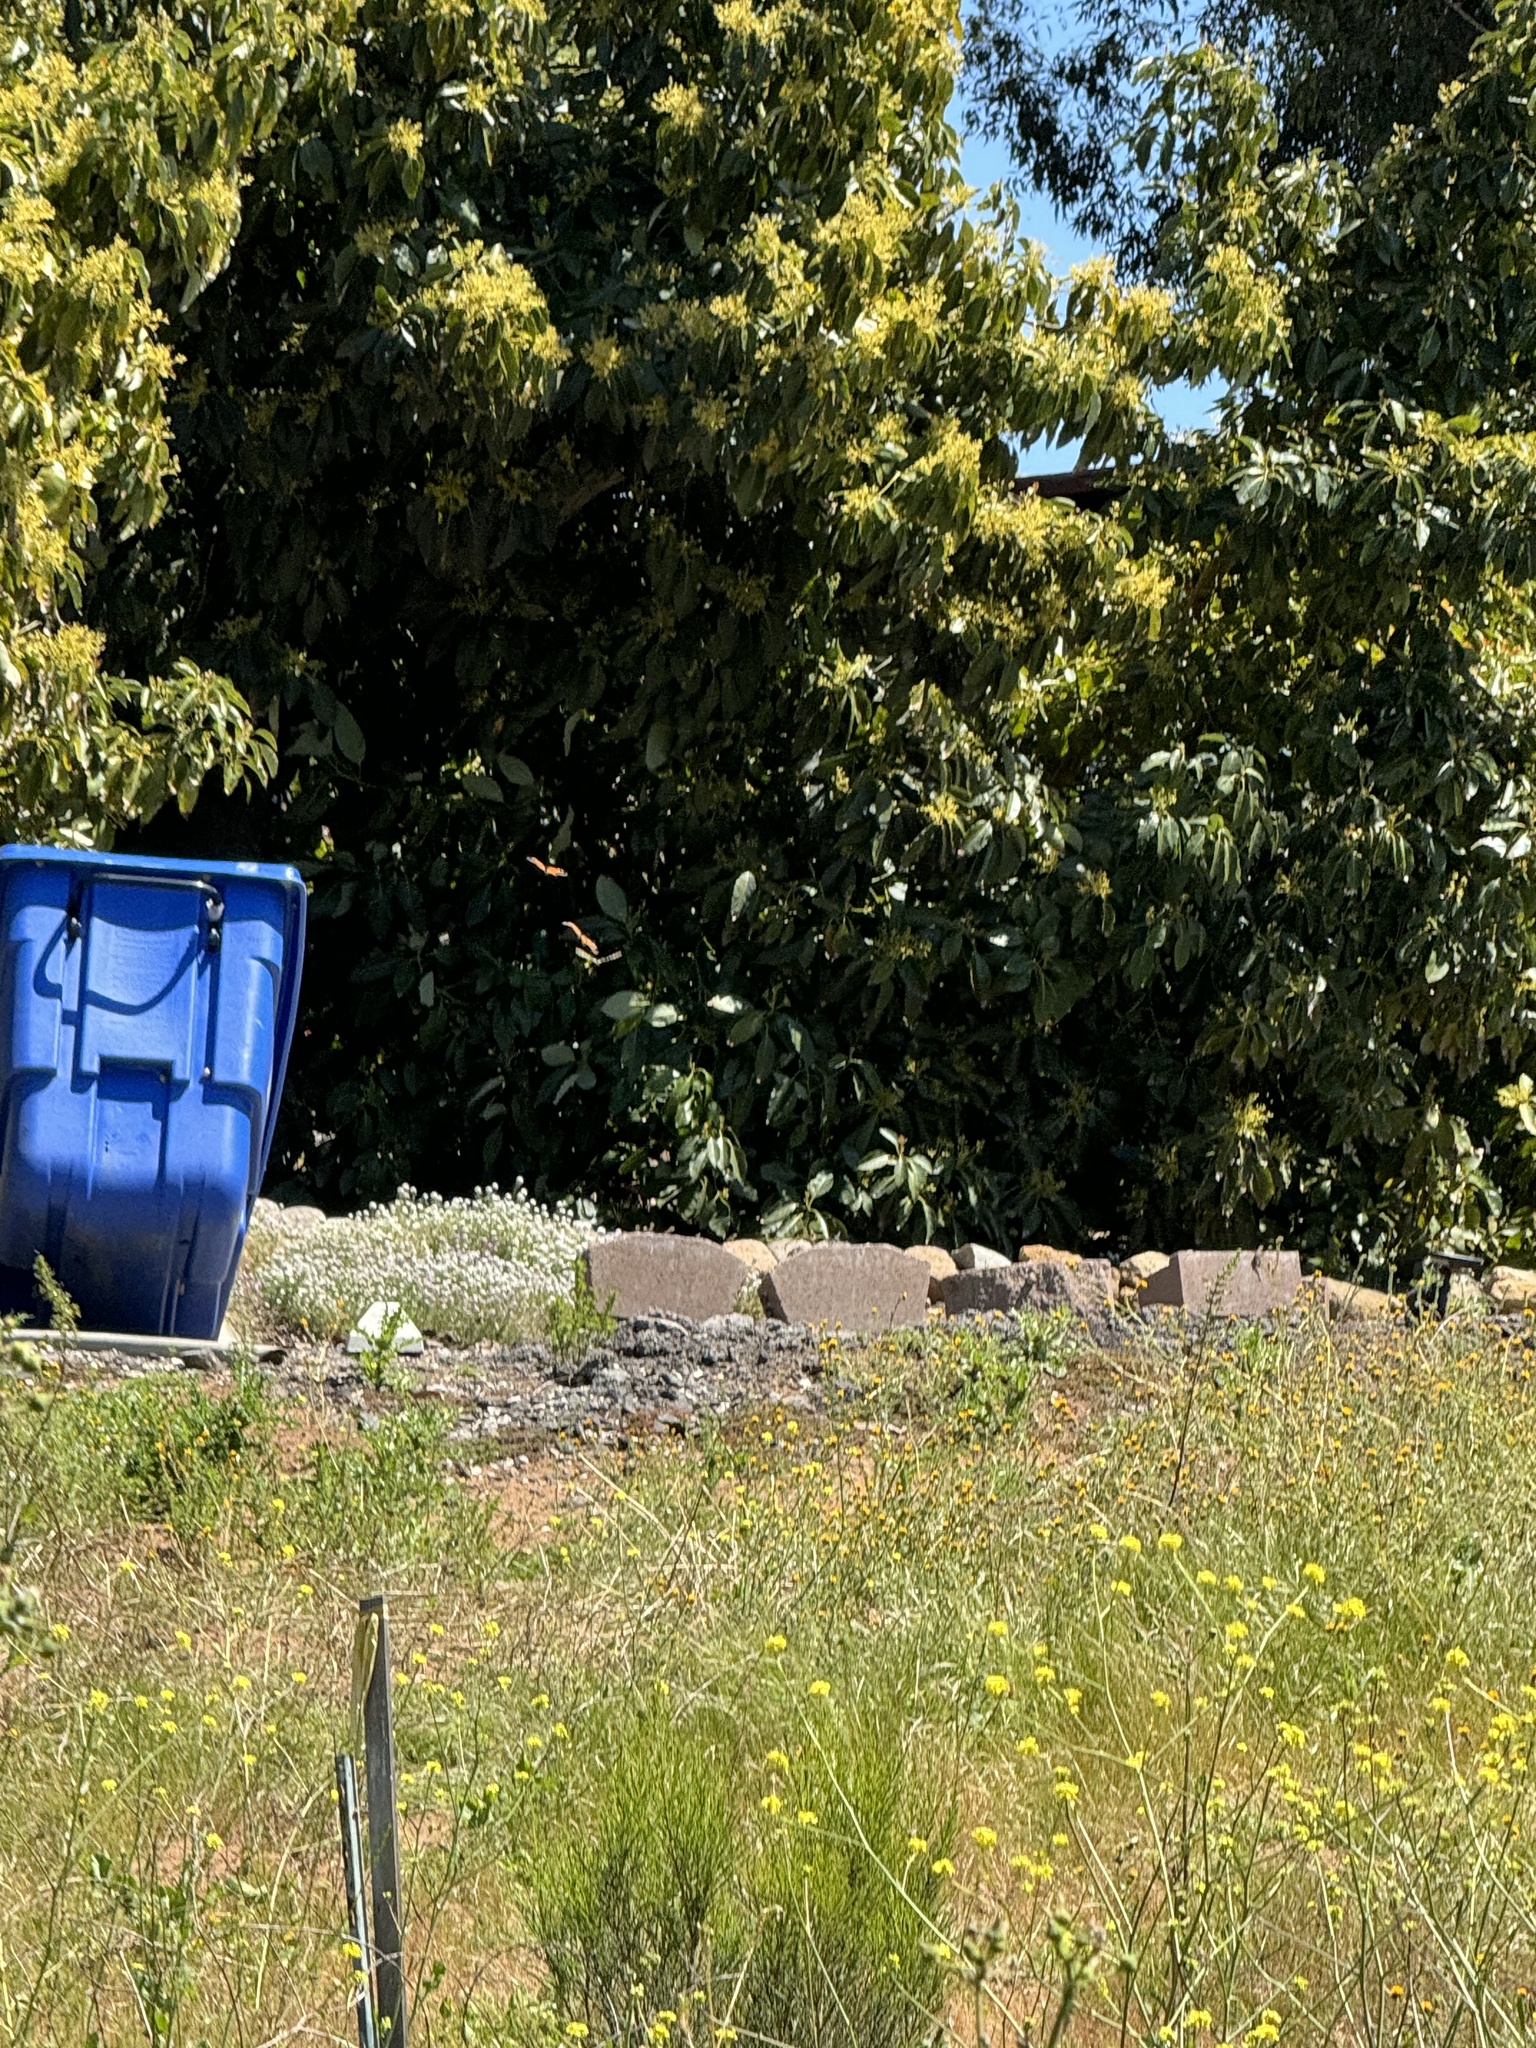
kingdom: Animalia
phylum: Arthropoda
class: Insecta
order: Lepidoptera
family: Nymphalidae
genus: Danaus
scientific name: Danaus plexippus
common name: Monarch
